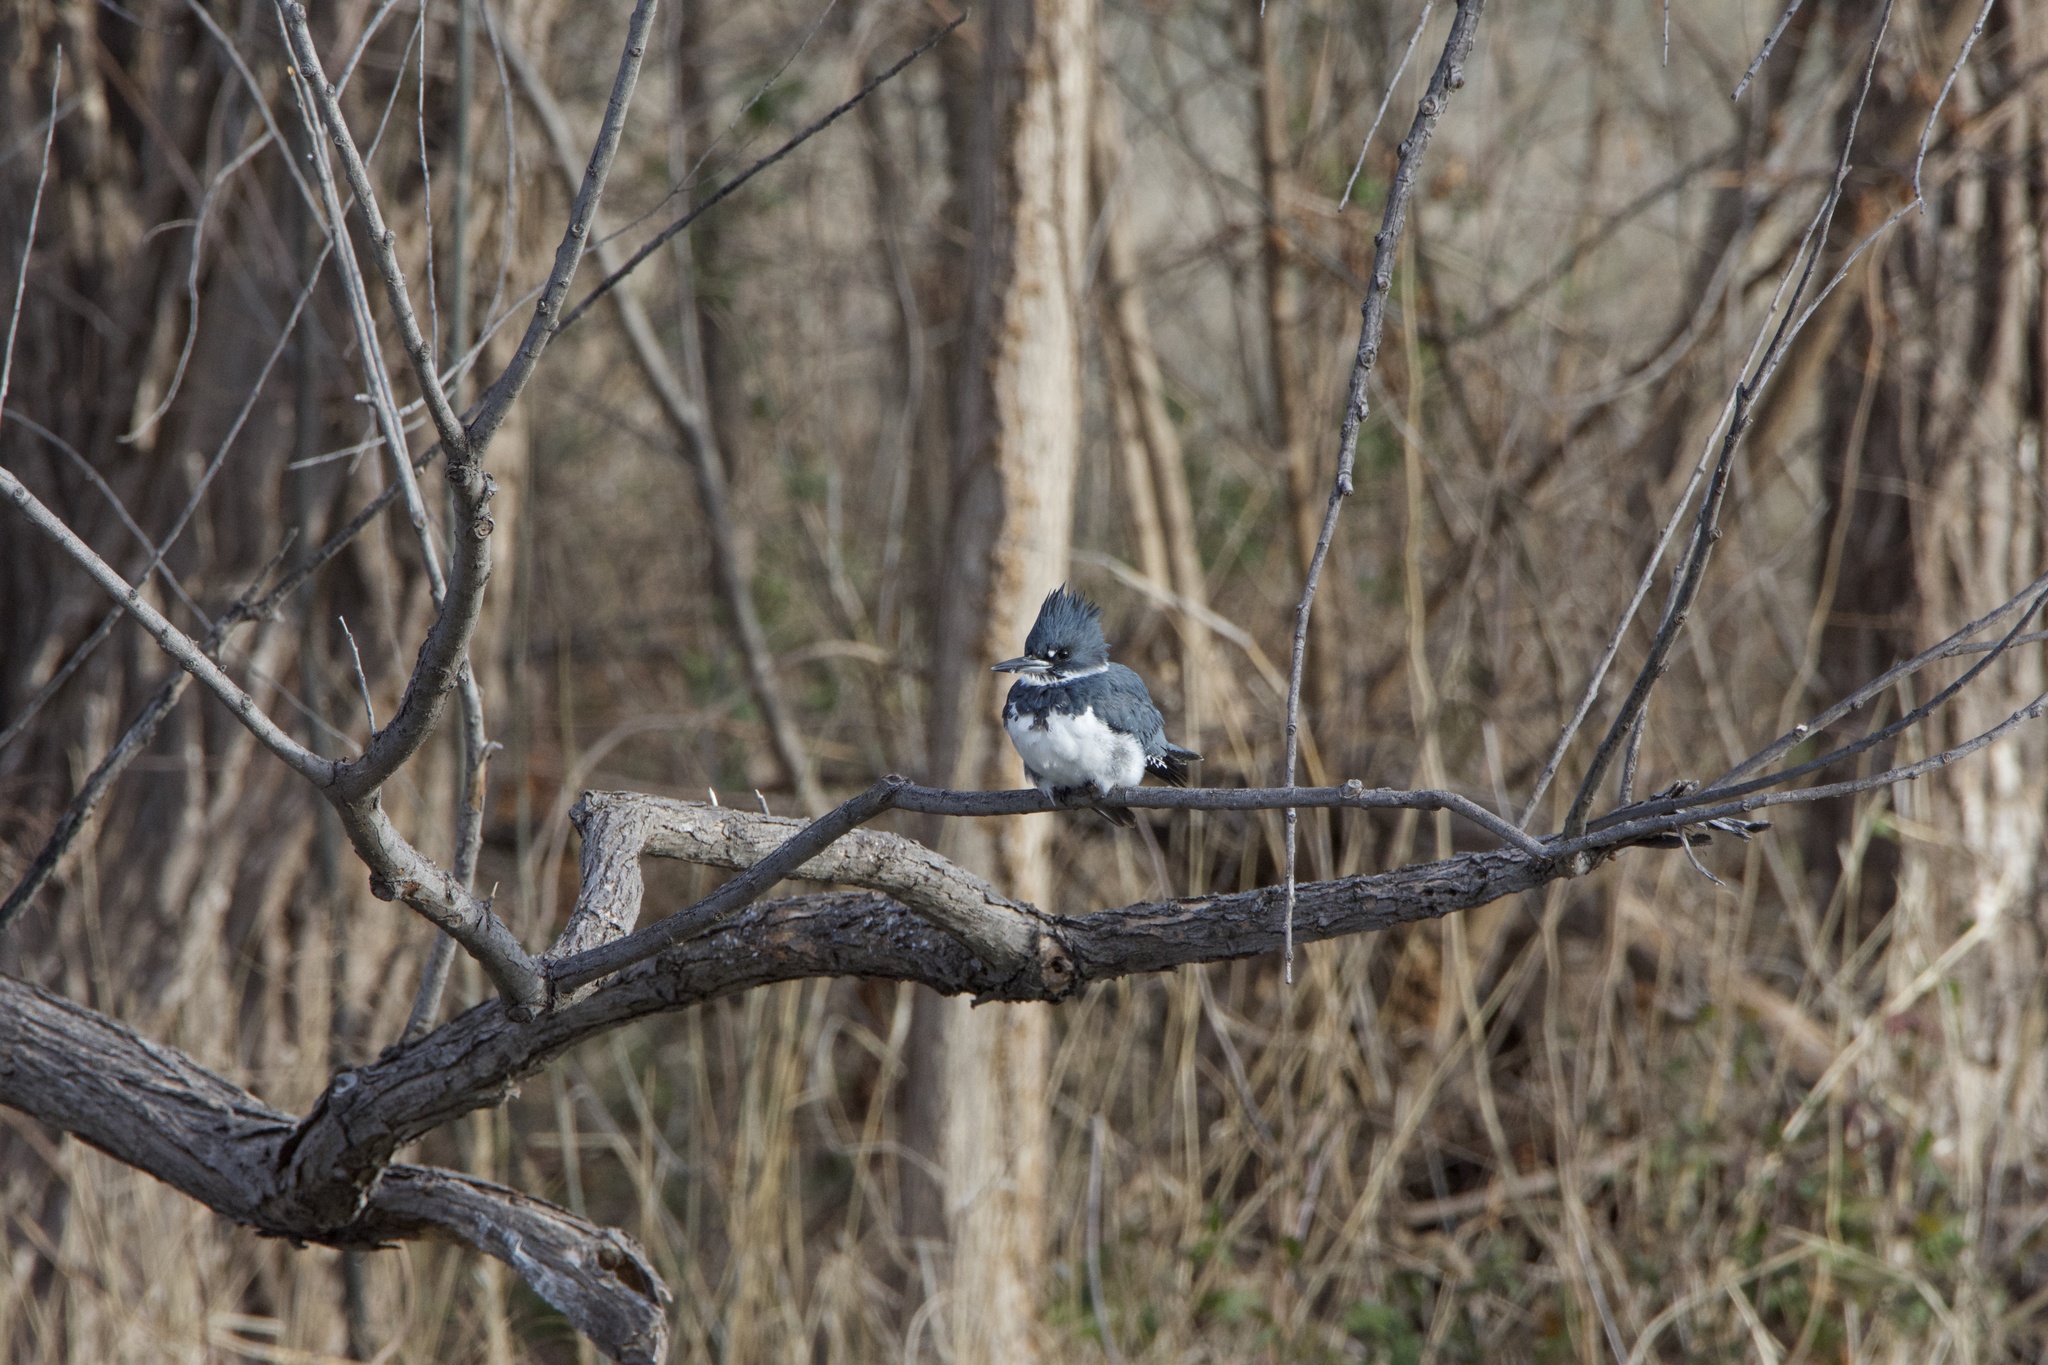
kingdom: Animalia
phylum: Chordata
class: Aves
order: Coraciiformes
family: Alcedinidae
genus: Megaceryle
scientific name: Megaceryle alcyon
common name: Belted kingfisher
